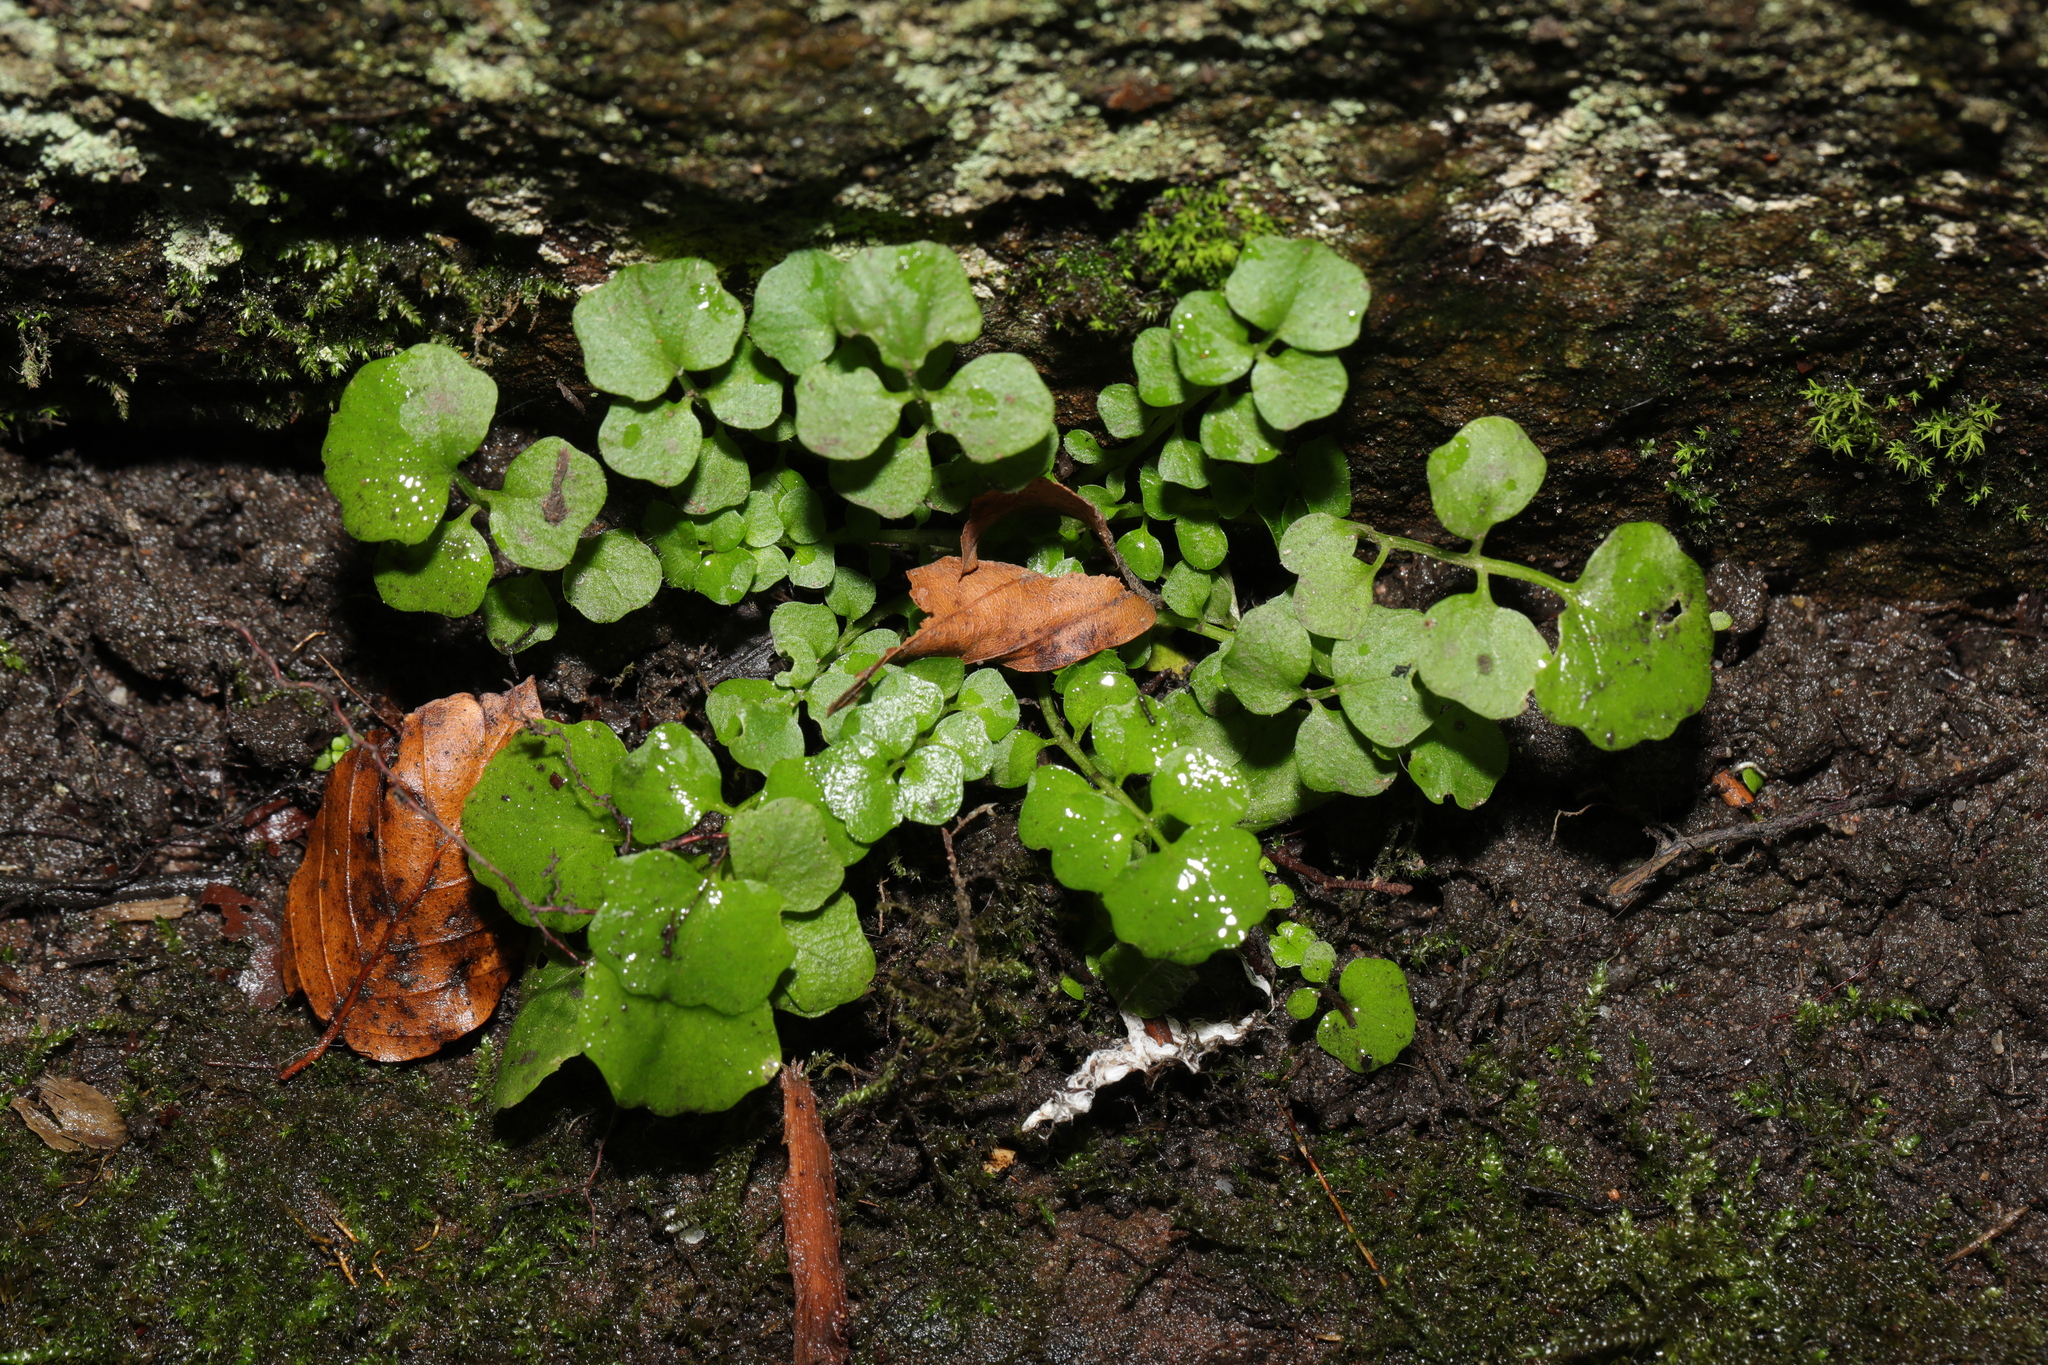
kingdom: Plantae
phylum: Tracheophyta
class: Magnoliopsida
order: Brassicales
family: Brassicaceae
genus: Cardamine
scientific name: Cardamine flexuosa
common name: Woodland bittercress
